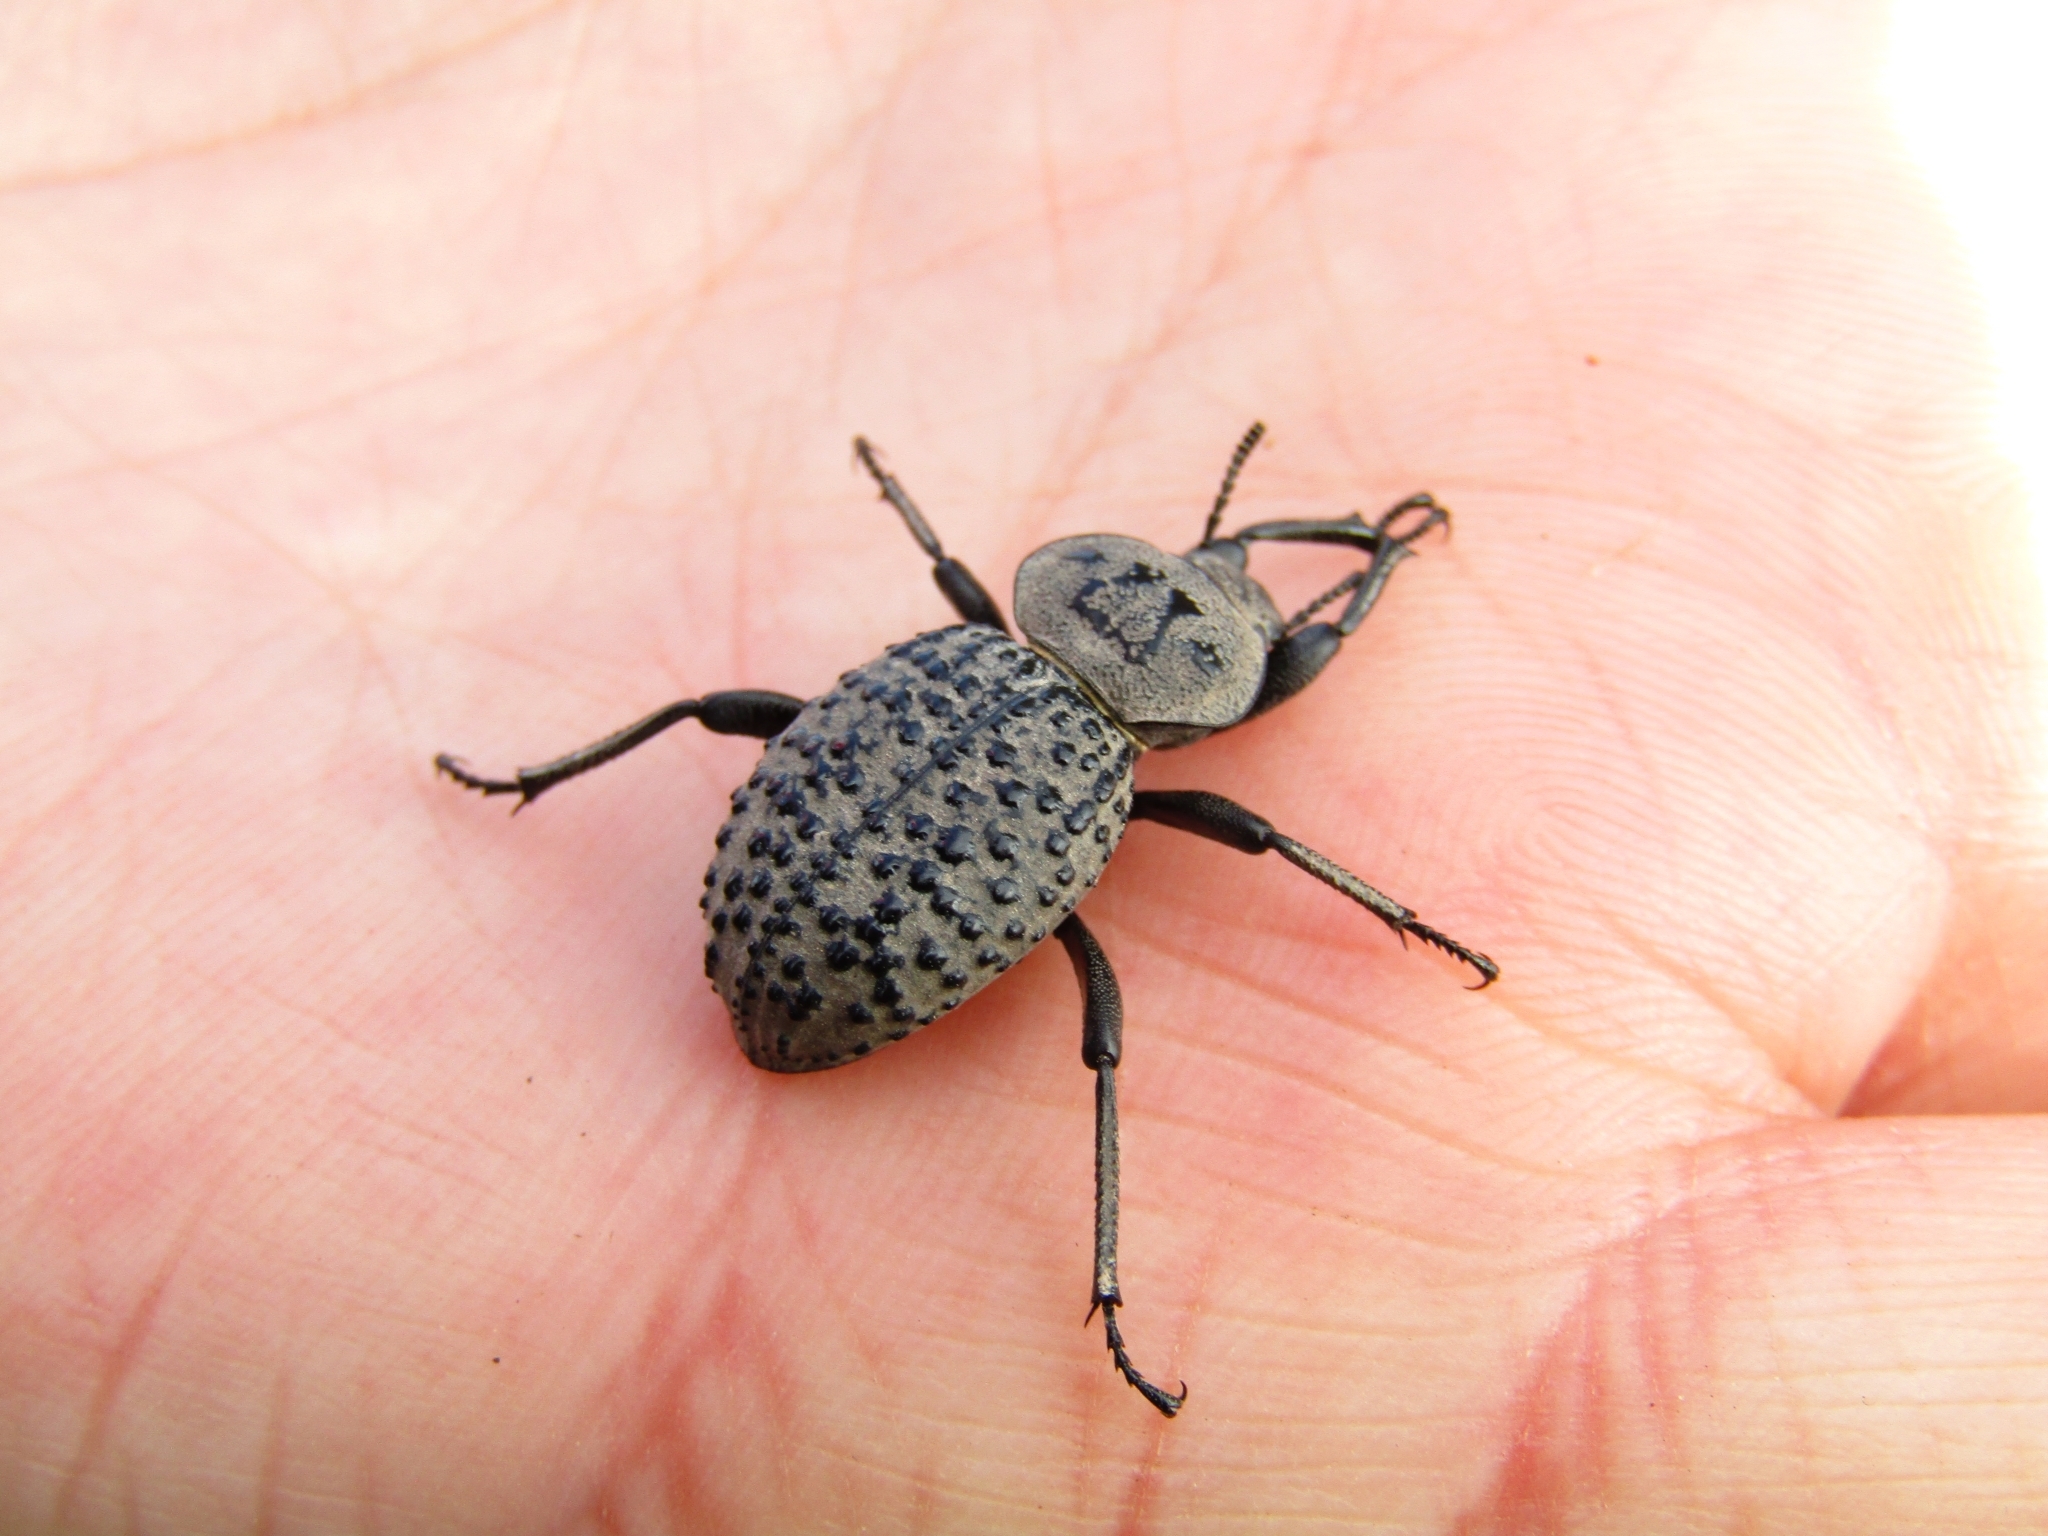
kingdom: Animalia
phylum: Arthropoda
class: Insecta
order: Coleoptera
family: Tenebrionidae
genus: Scotobius
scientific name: Scotobius pilularius
